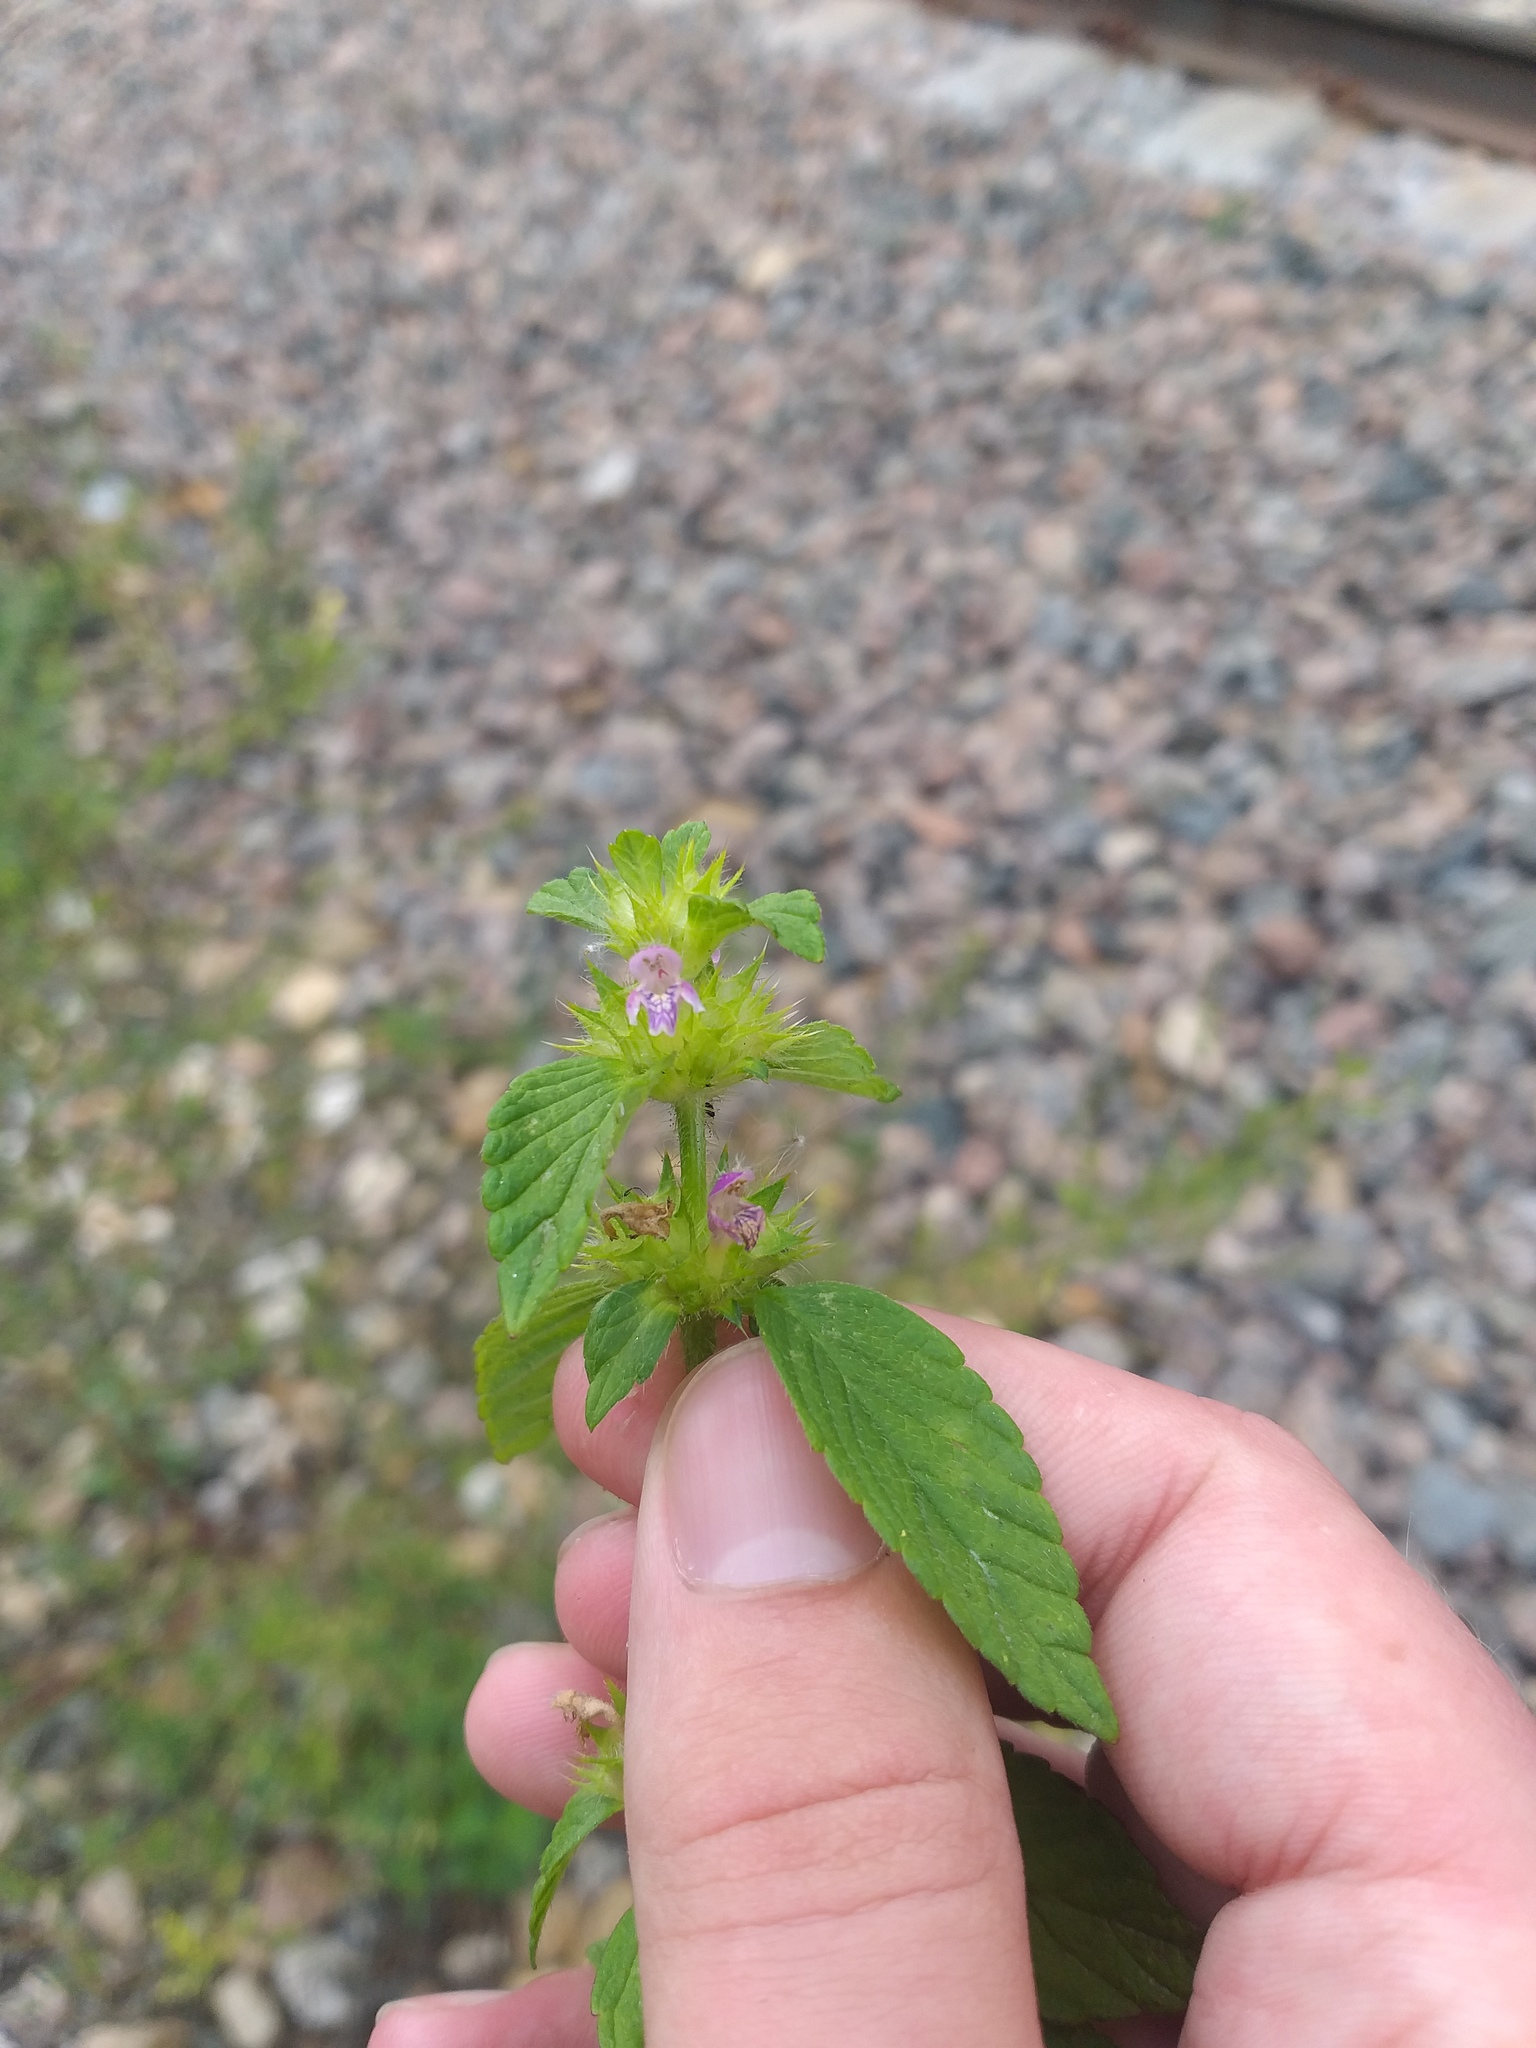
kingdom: Plantae
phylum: Tracheophyta
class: Magnoliopsida
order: Lamiales
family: Lamiaceae
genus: Galeopsis
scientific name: Galeopsis bifida
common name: Bifid hemp-nettle
